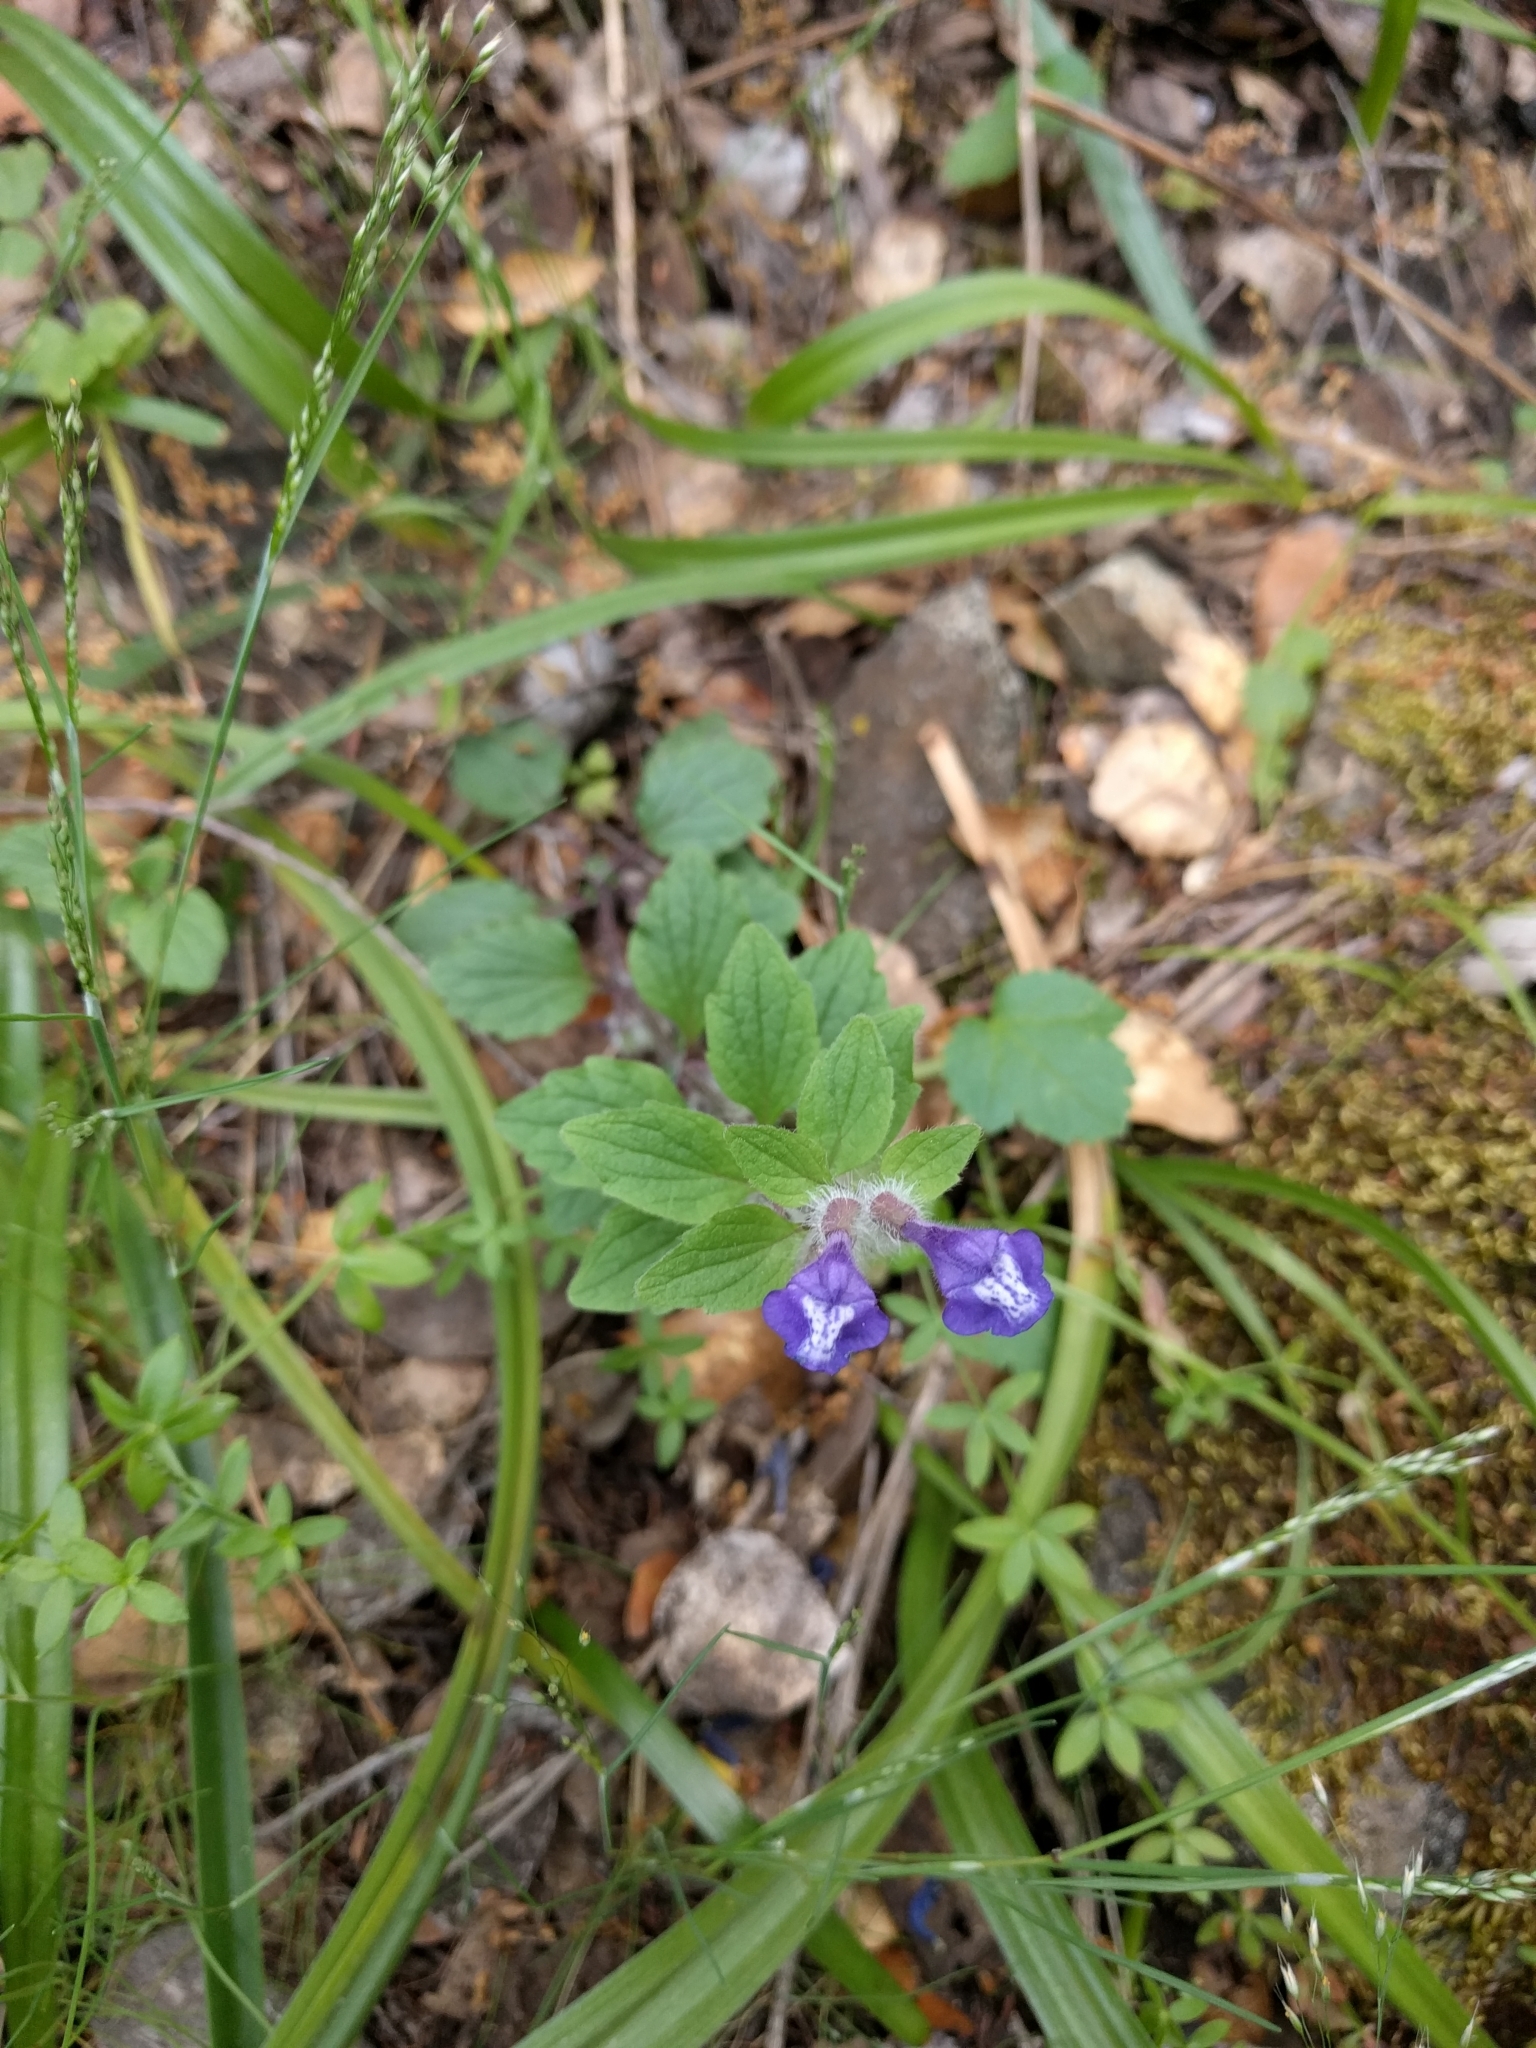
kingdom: Plantae
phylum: Tracheophyta
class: Magnoliopsida
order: Lamiales
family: Lamiaceae
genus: Scutellaria
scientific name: Scutellaria tuberosa
